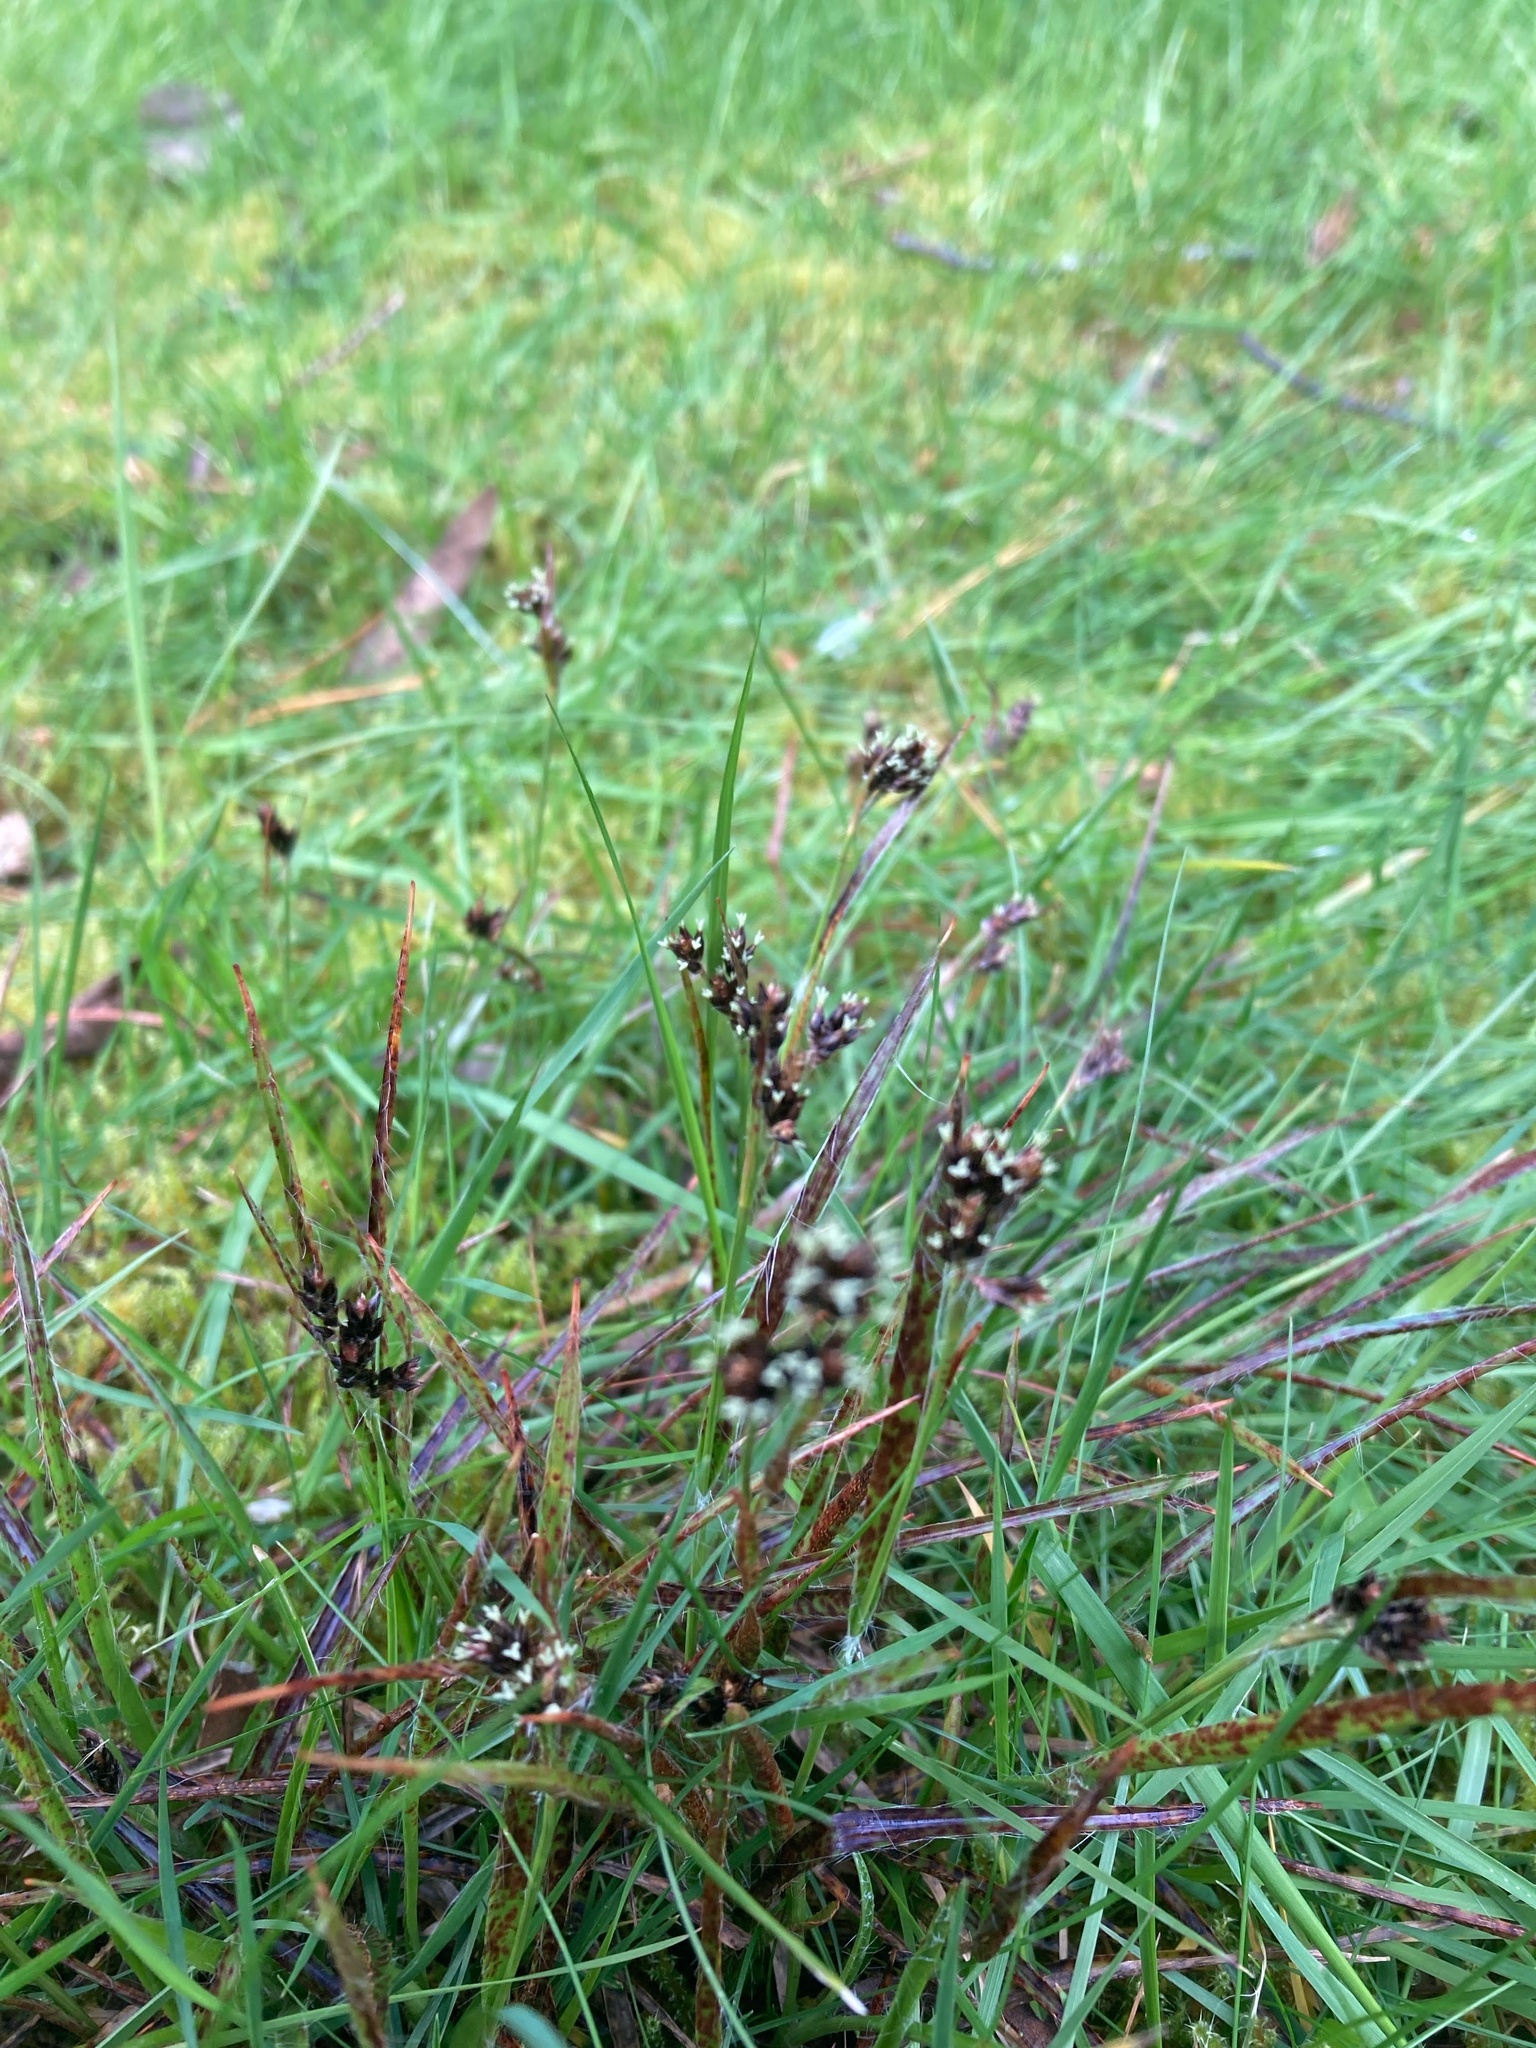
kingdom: Plantae
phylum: Tracheophyta
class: Liliopsida
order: Poales
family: Juncaceae
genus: Luzula
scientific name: Luzula campestris
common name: Field wood-rush
